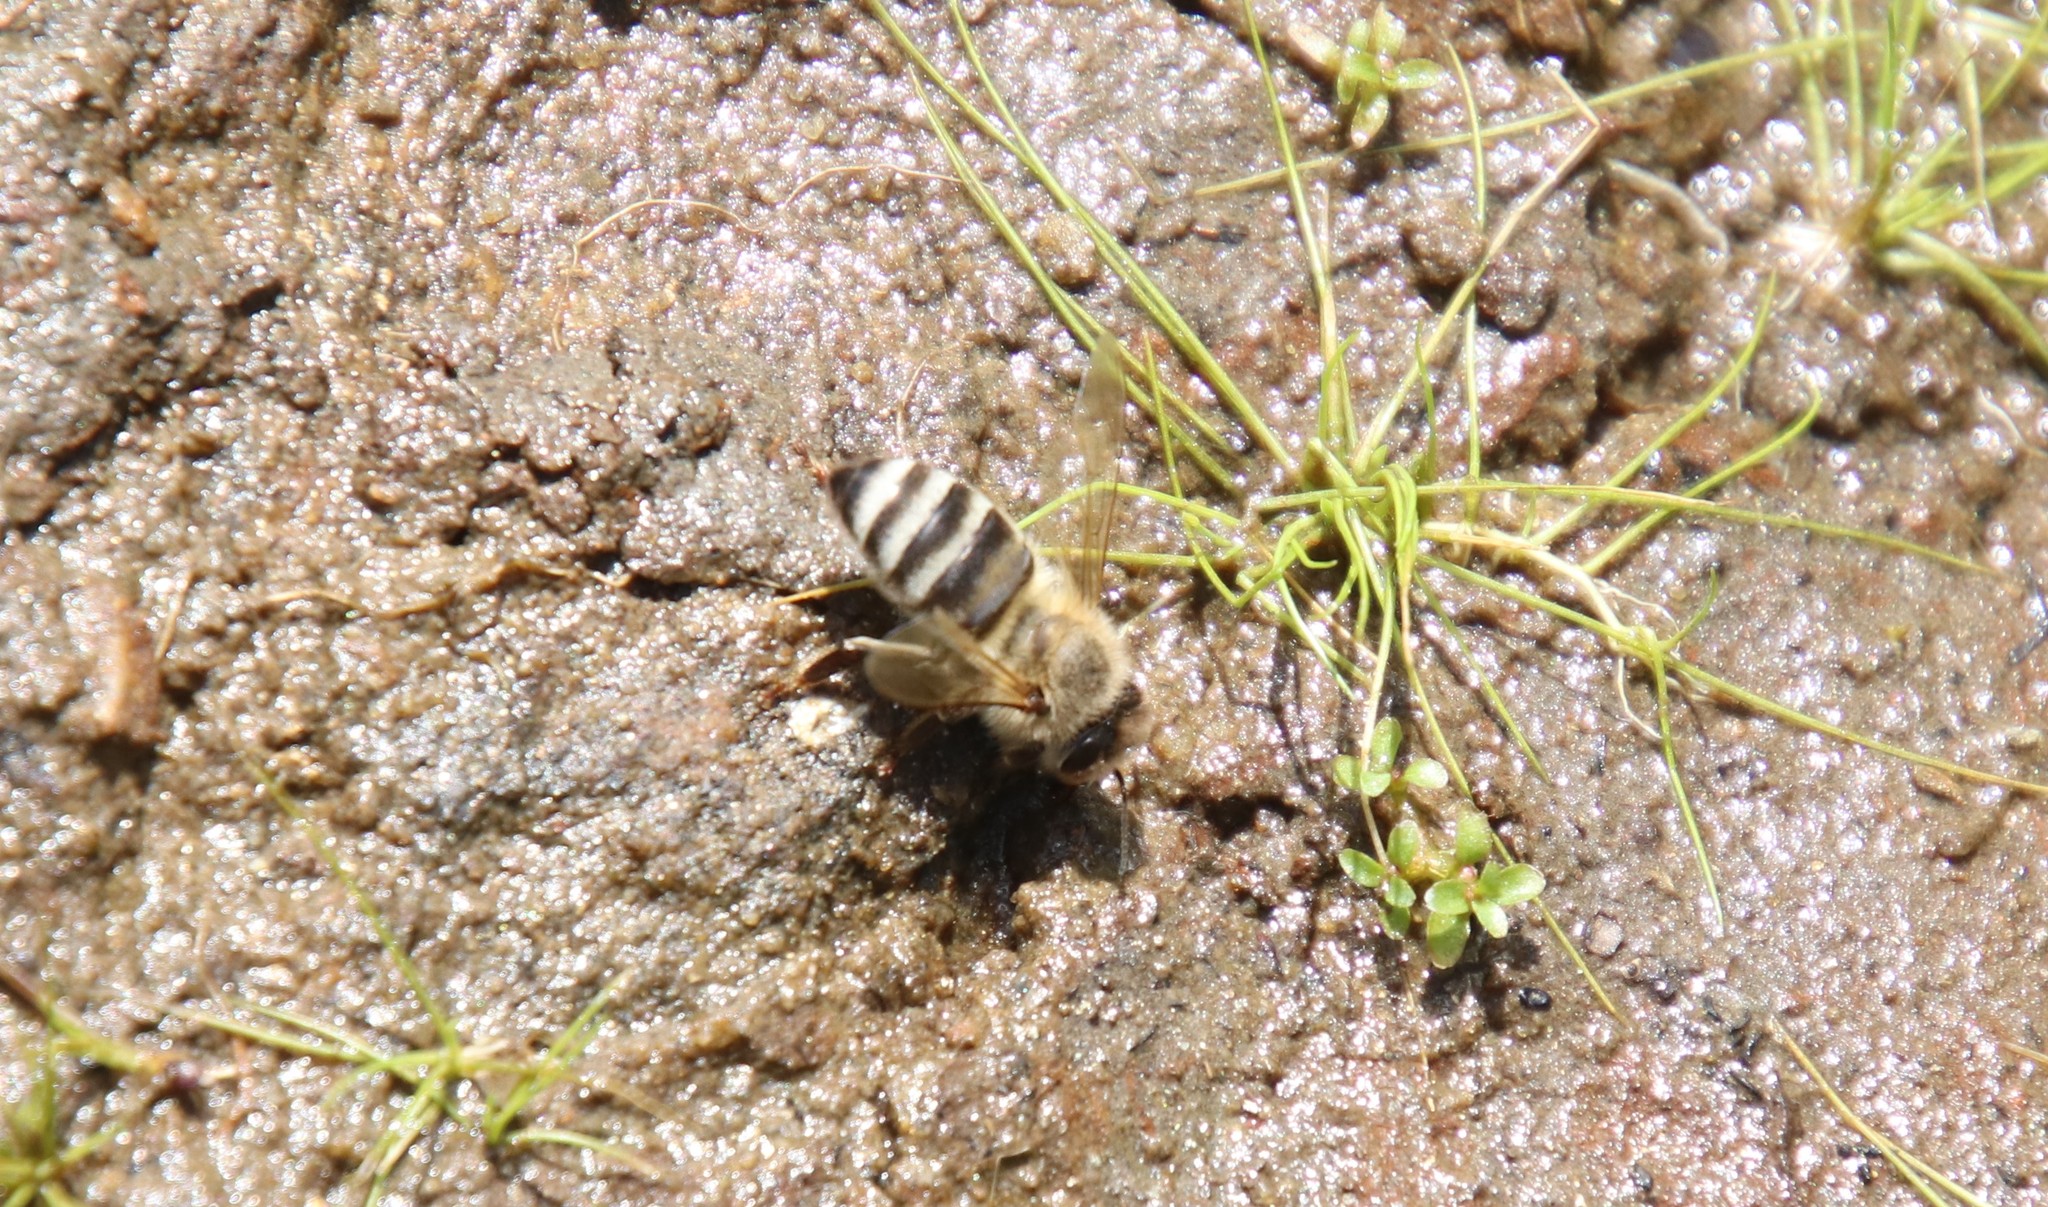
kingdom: Animalia
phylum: Arthropoda
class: Insecta
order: Hymenoptera
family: Apidae
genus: Apis
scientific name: Apis mellifera
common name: Honey bee
